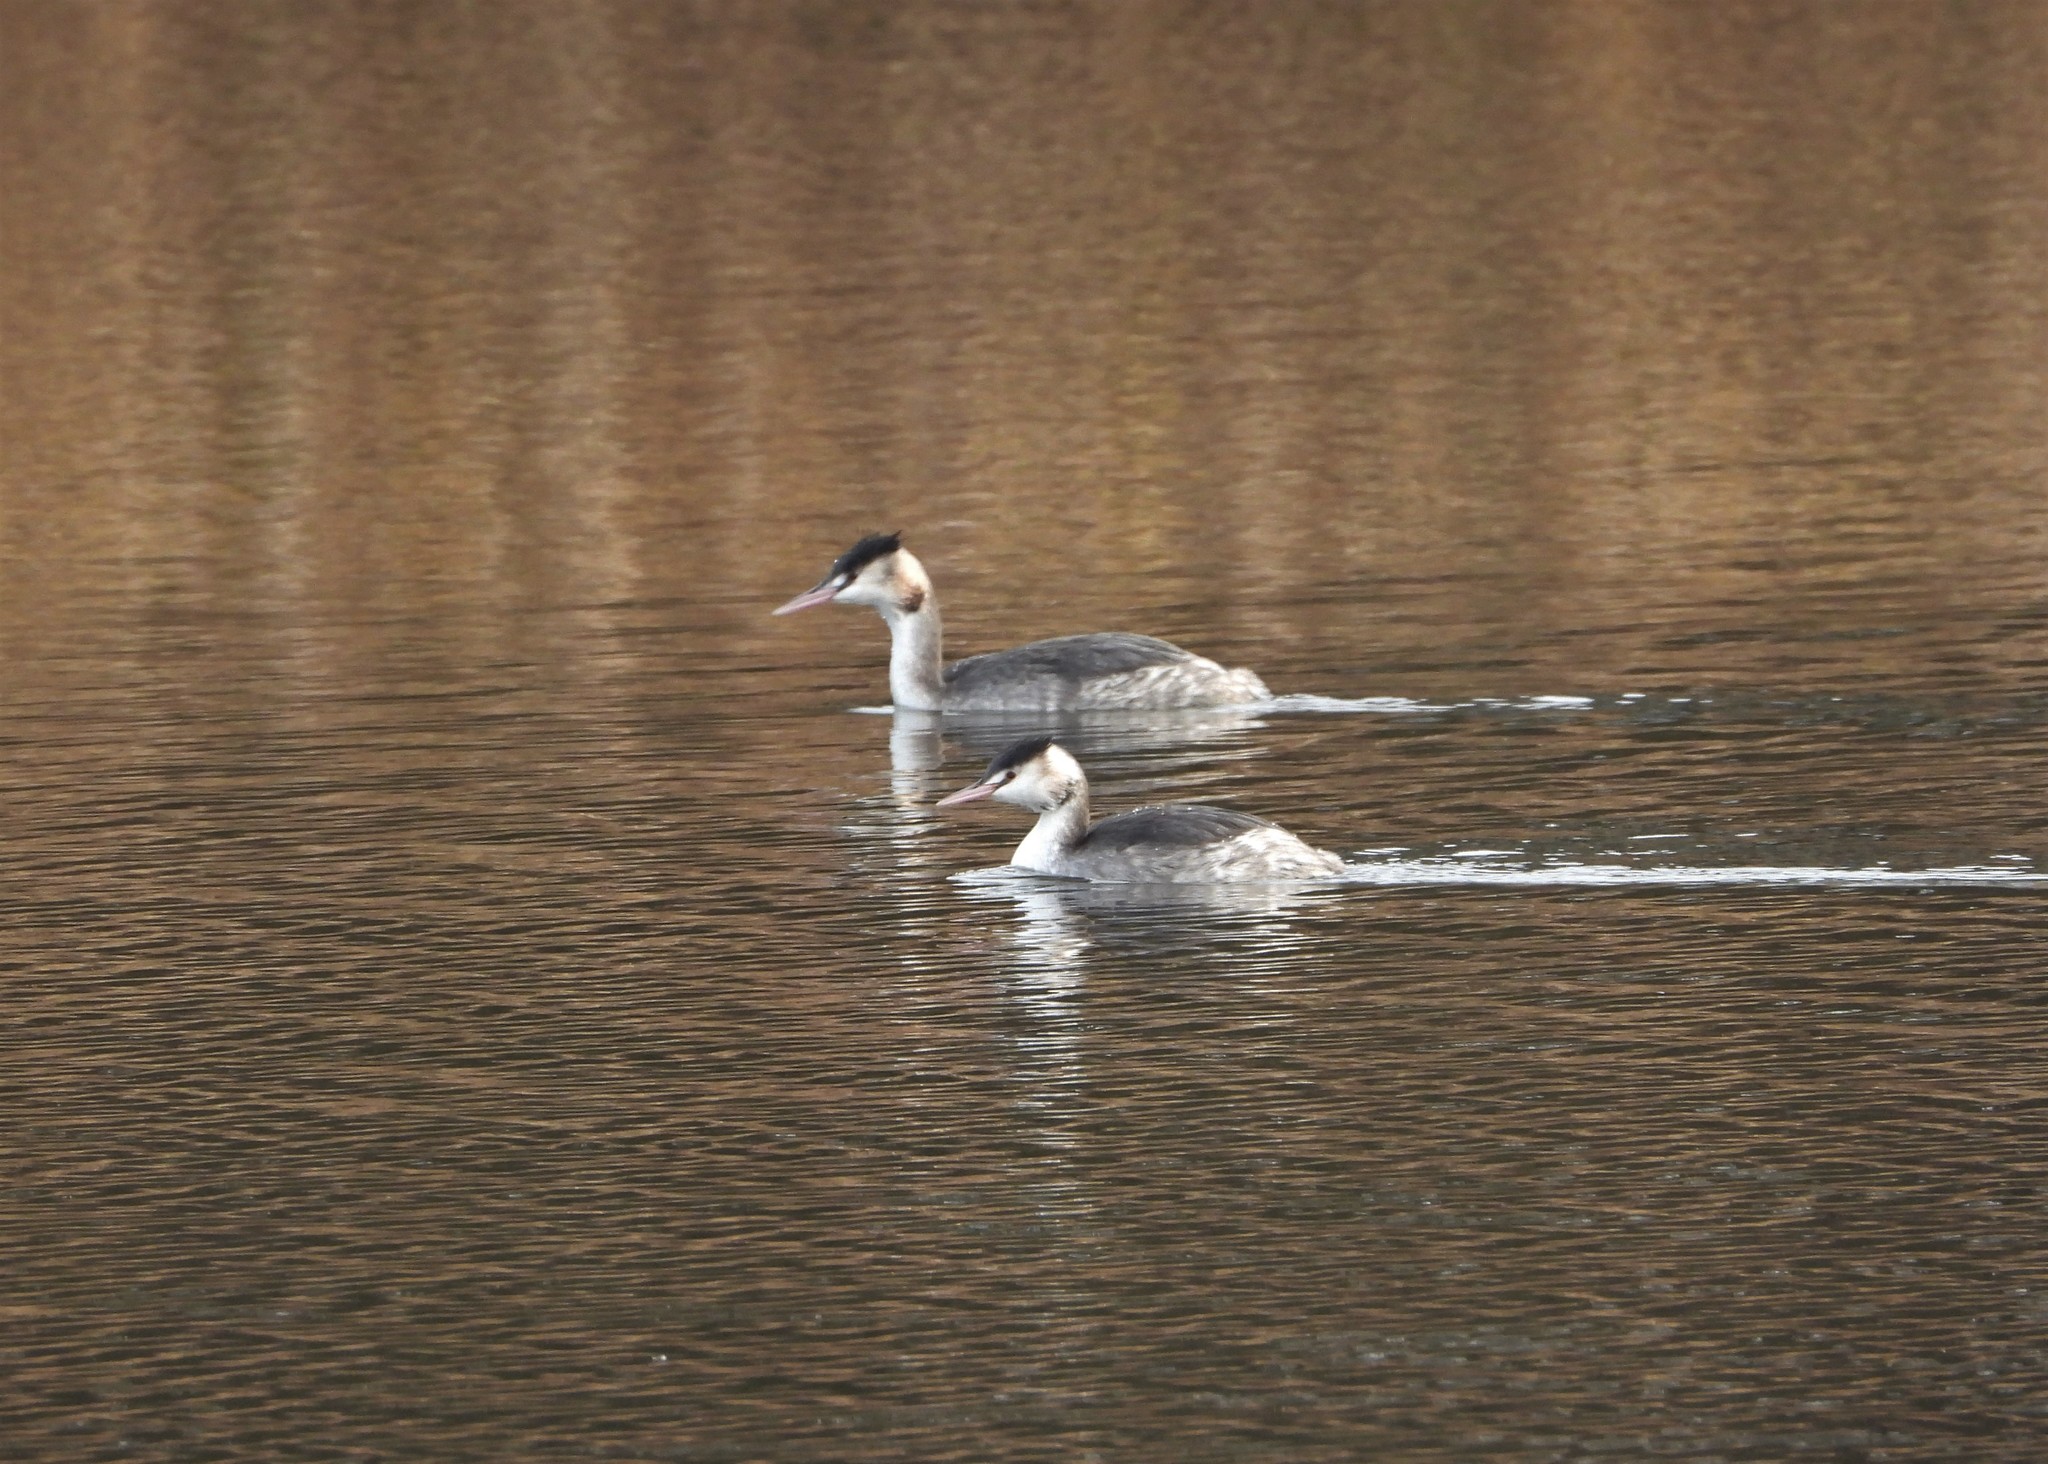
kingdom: Animalia
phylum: Chordata
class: Aves
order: Podicipediformes
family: Podicipedidae
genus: Podiceps
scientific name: Podiceps cristatus
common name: Great crested grebe
